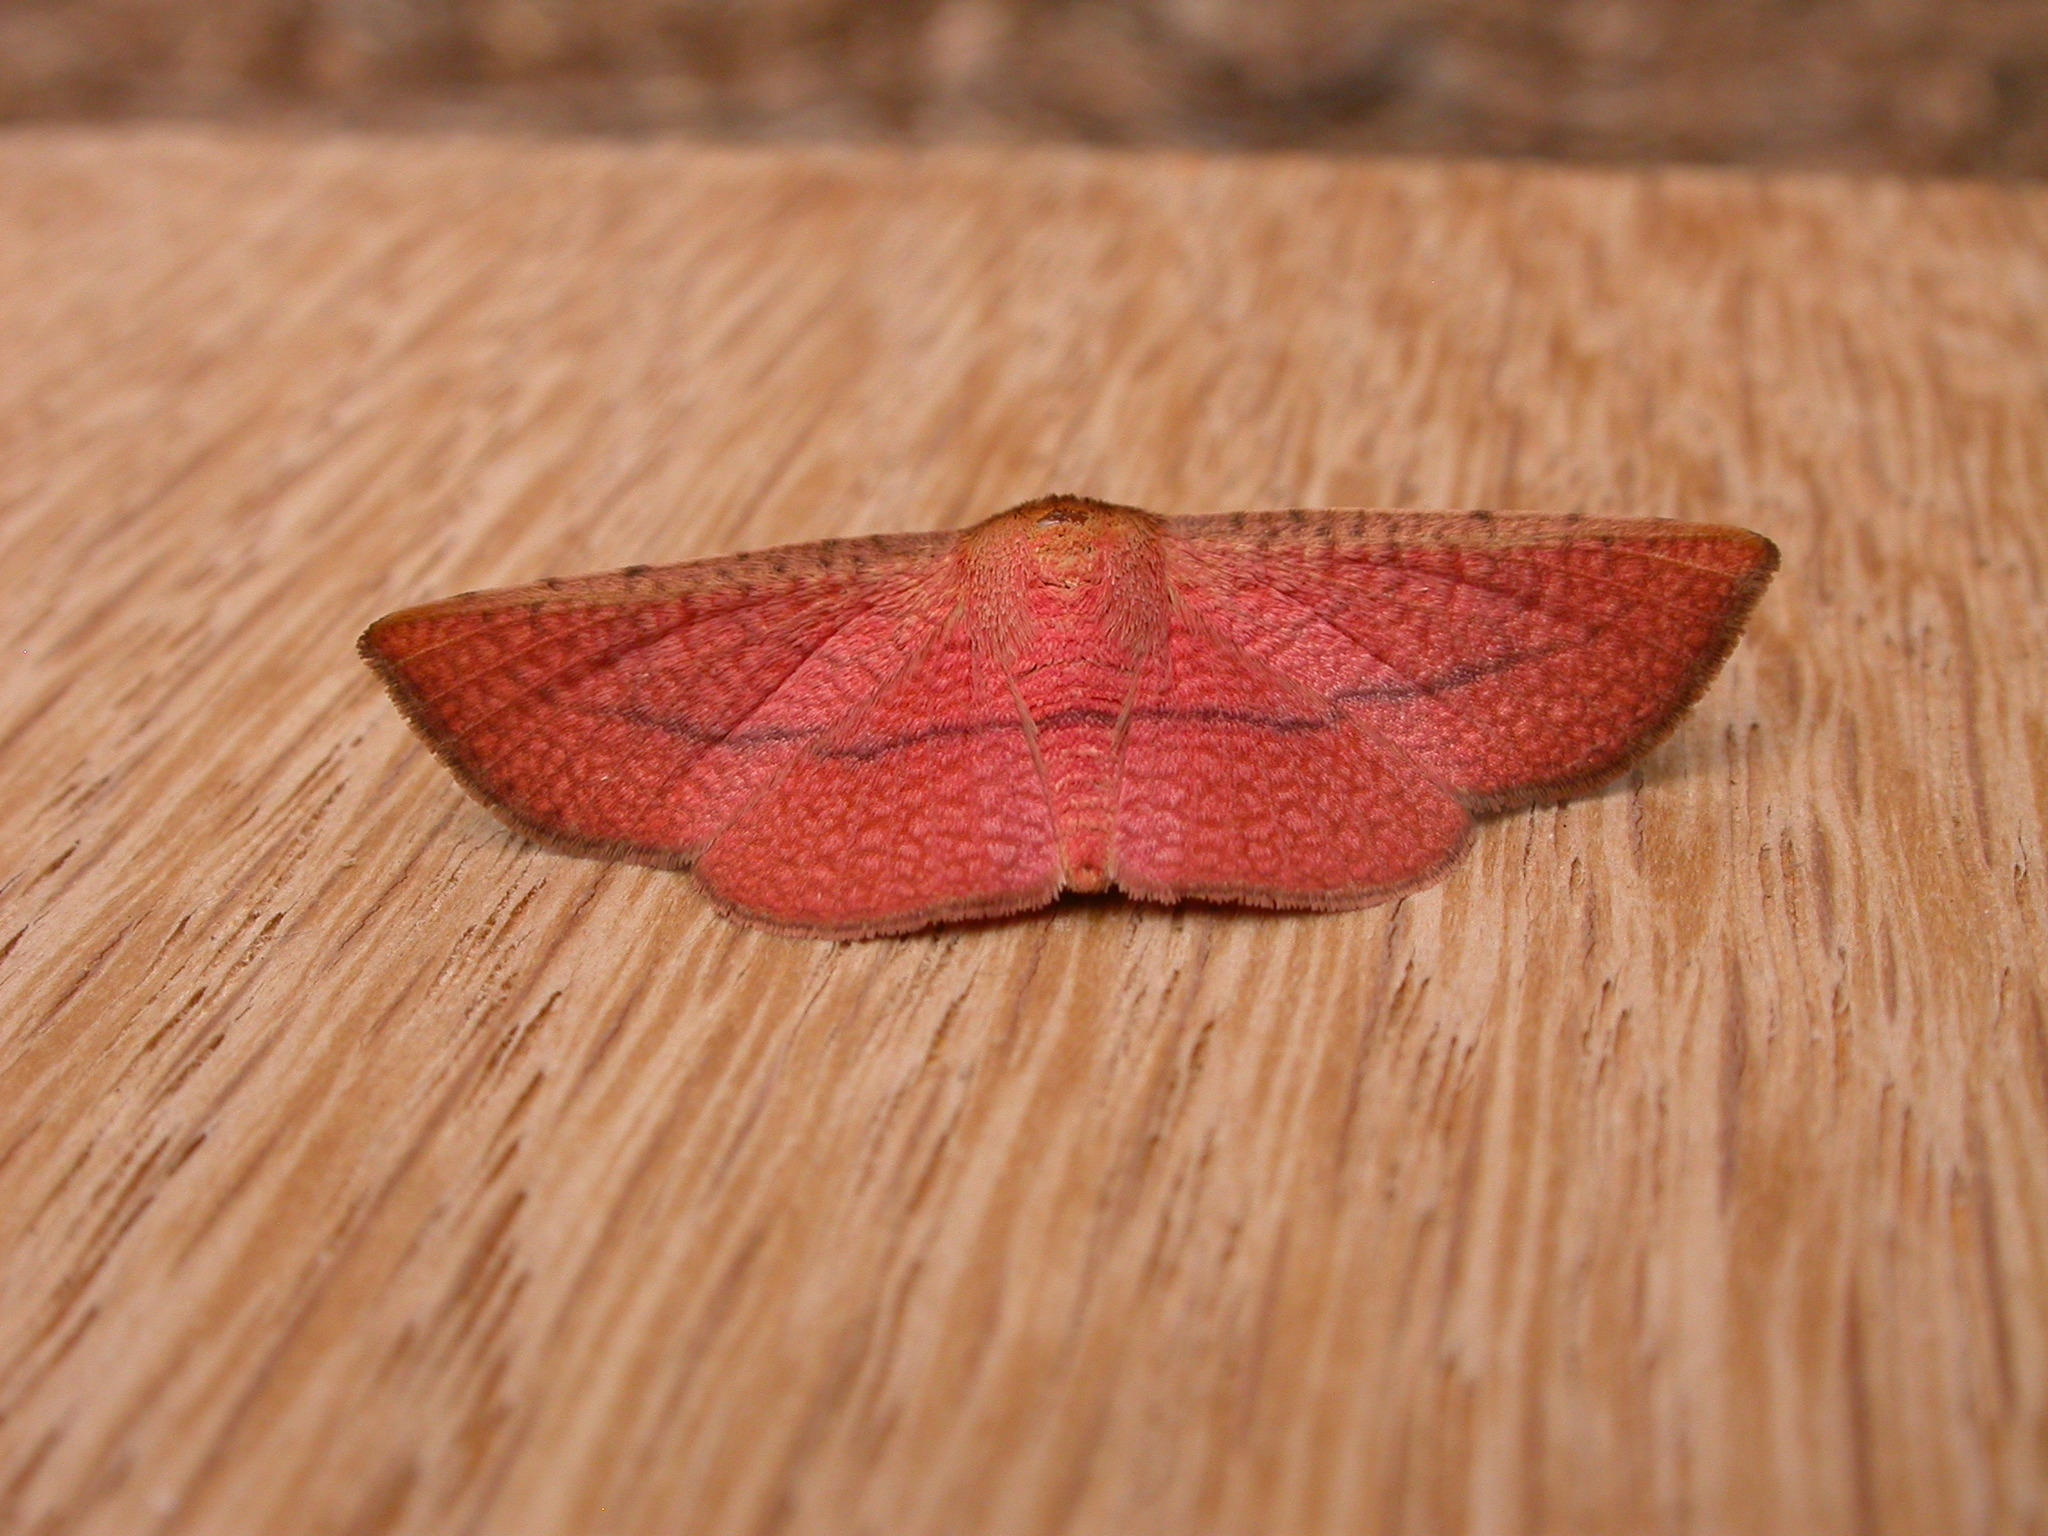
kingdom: Animalia
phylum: Arthropoda
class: Insecta
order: Lepidoptera
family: Thyrididae
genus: Aglaopus
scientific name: Aglaopus pyrrhata
